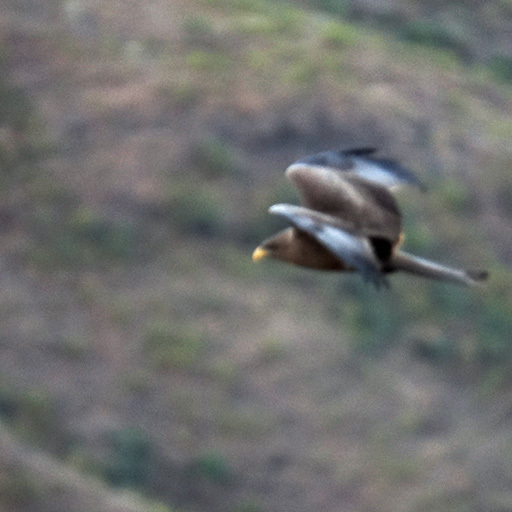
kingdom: Animalia
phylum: Chordata
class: Aves
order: Accipitriformes
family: Accipitridae
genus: Milvus
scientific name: Milvus migrans
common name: Black kite
